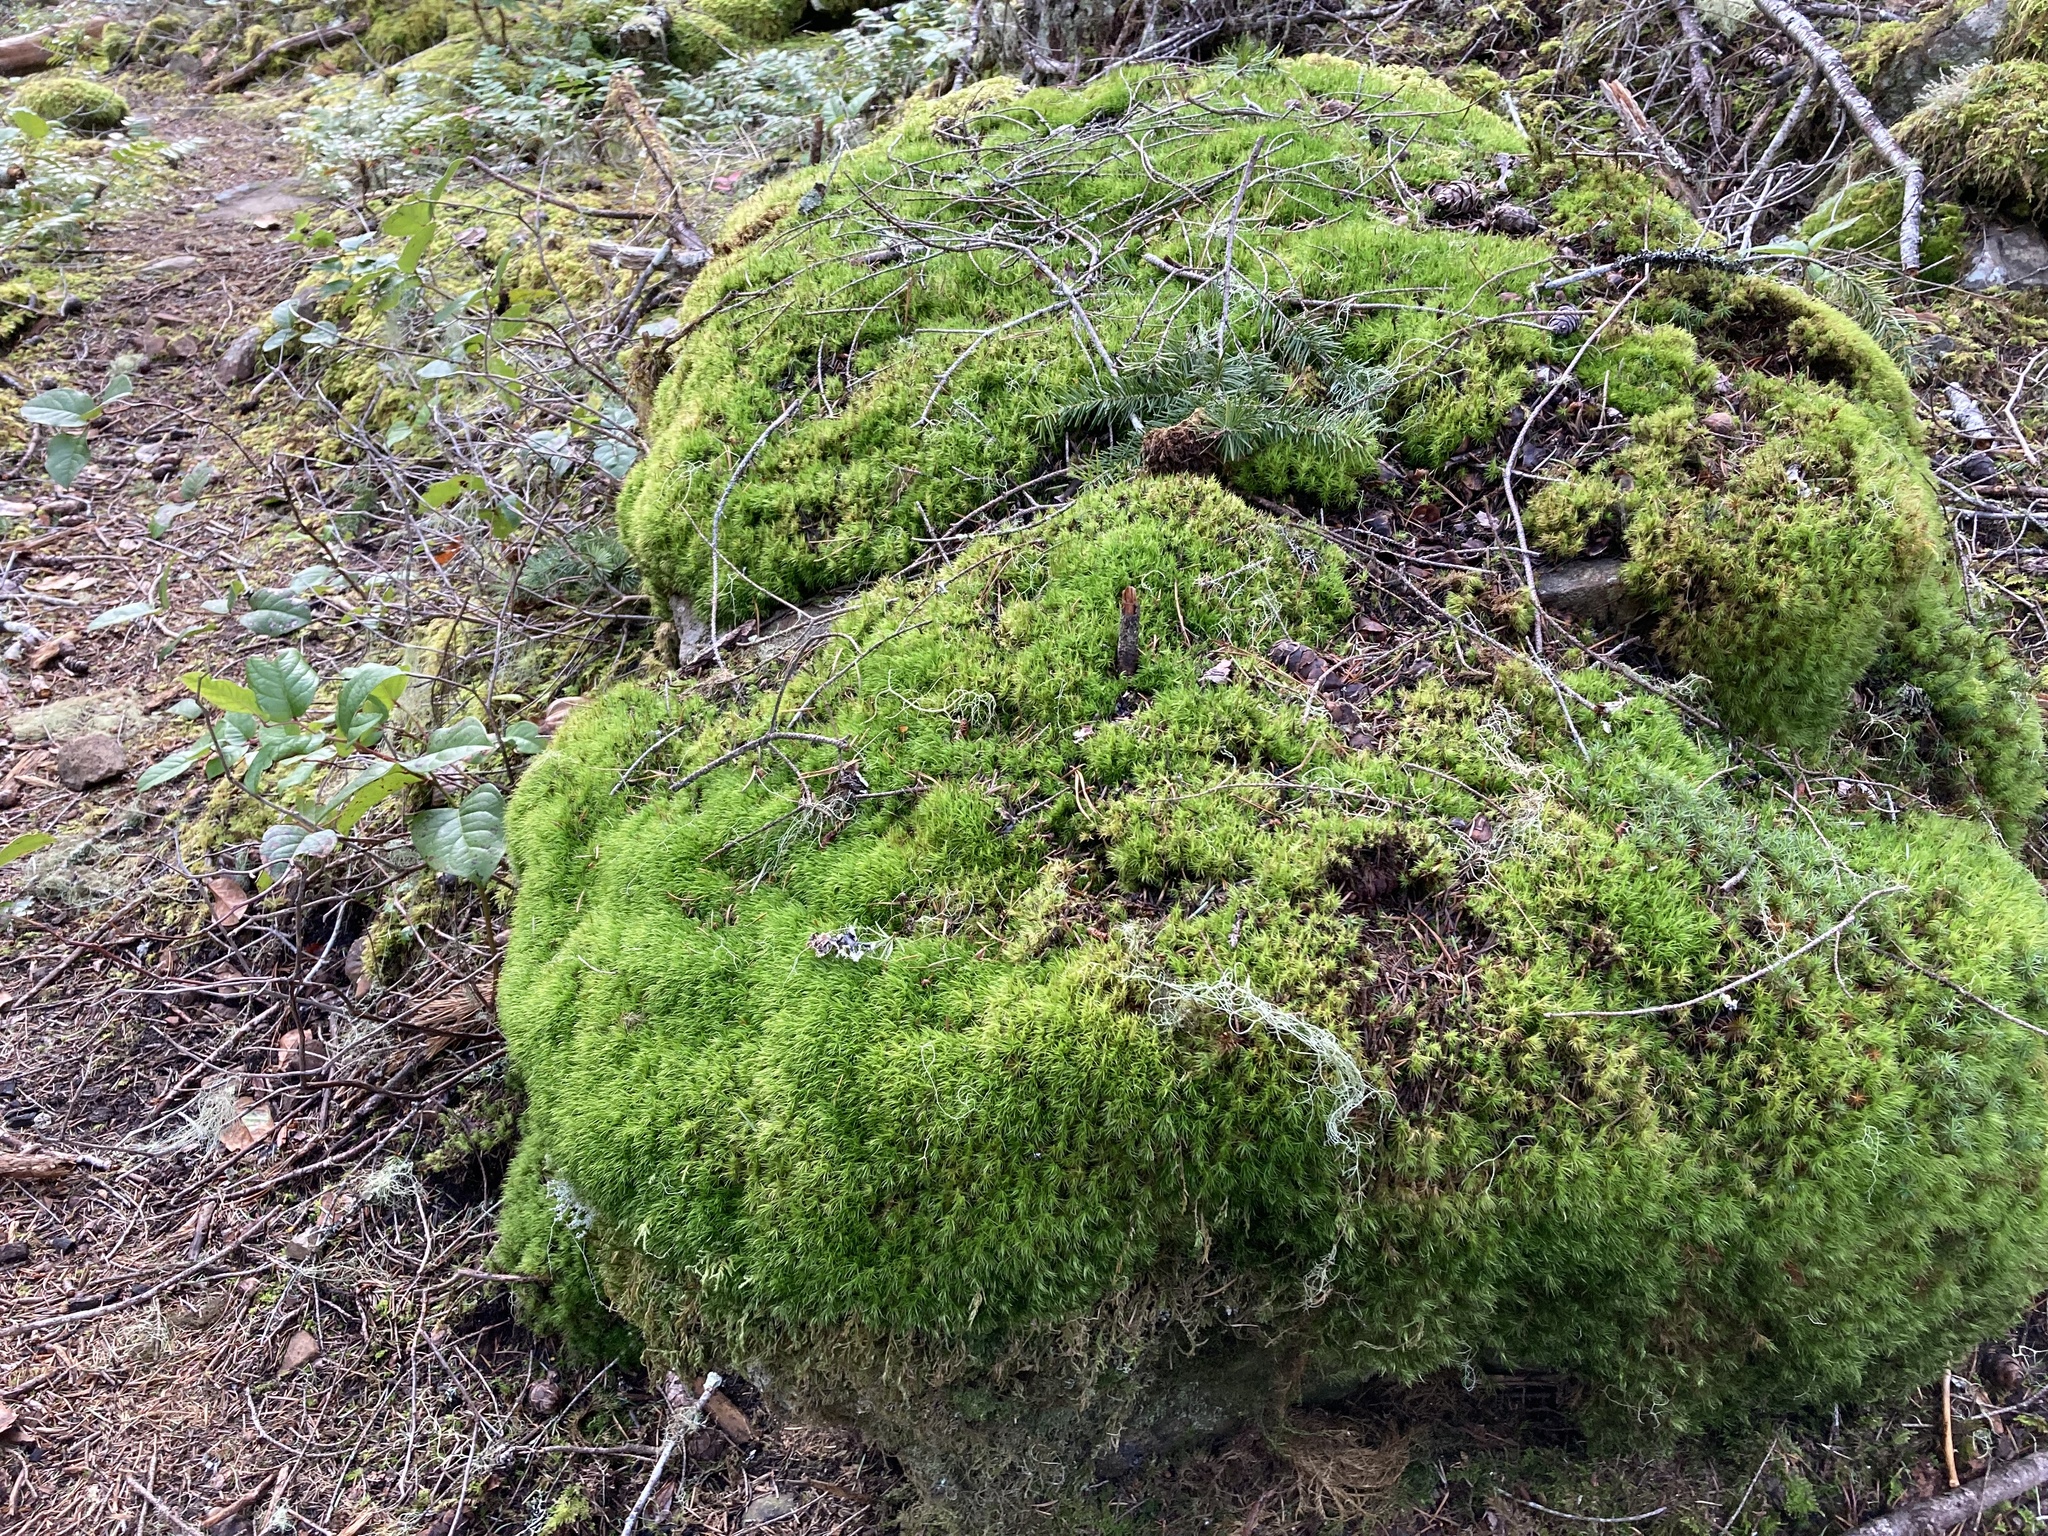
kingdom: Plantae
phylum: Bryophyta
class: Bryopsida
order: Dicranales
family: Dicranaceae
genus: Dicranum
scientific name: Dicranum scoparium
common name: Broom fork-moss
